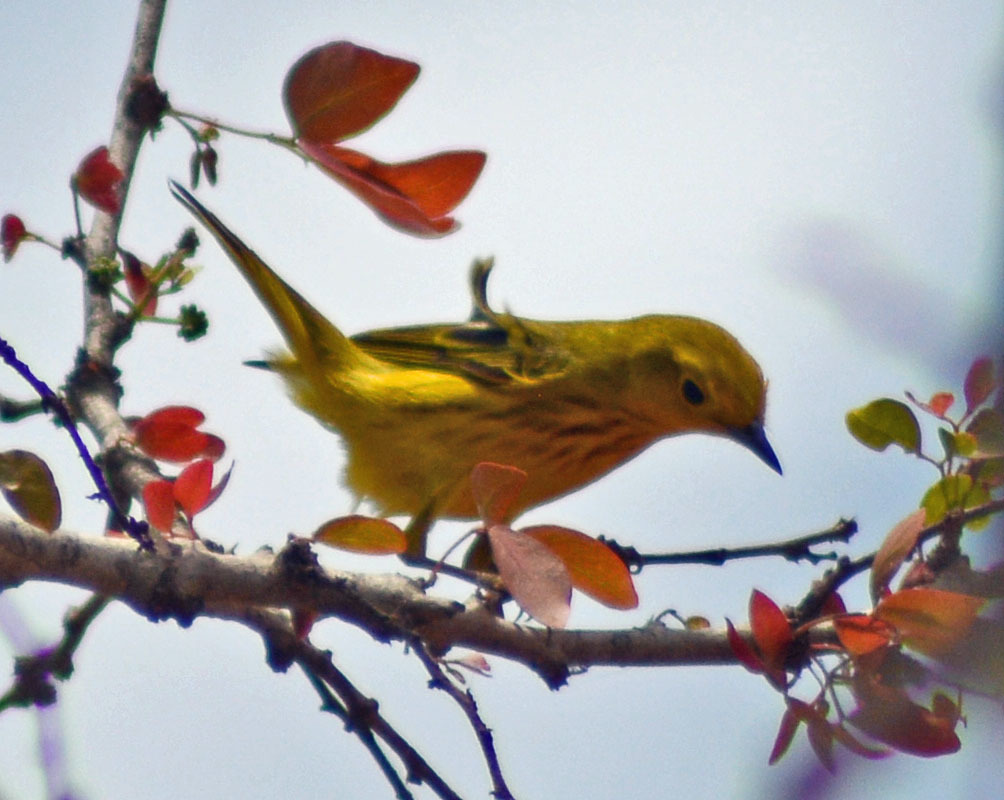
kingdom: Animalia
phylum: Chordata
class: Aves
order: Passeriformes
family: Parulidae
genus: Setophaga
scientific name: Setophaga petechia
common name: Yellow warbler
